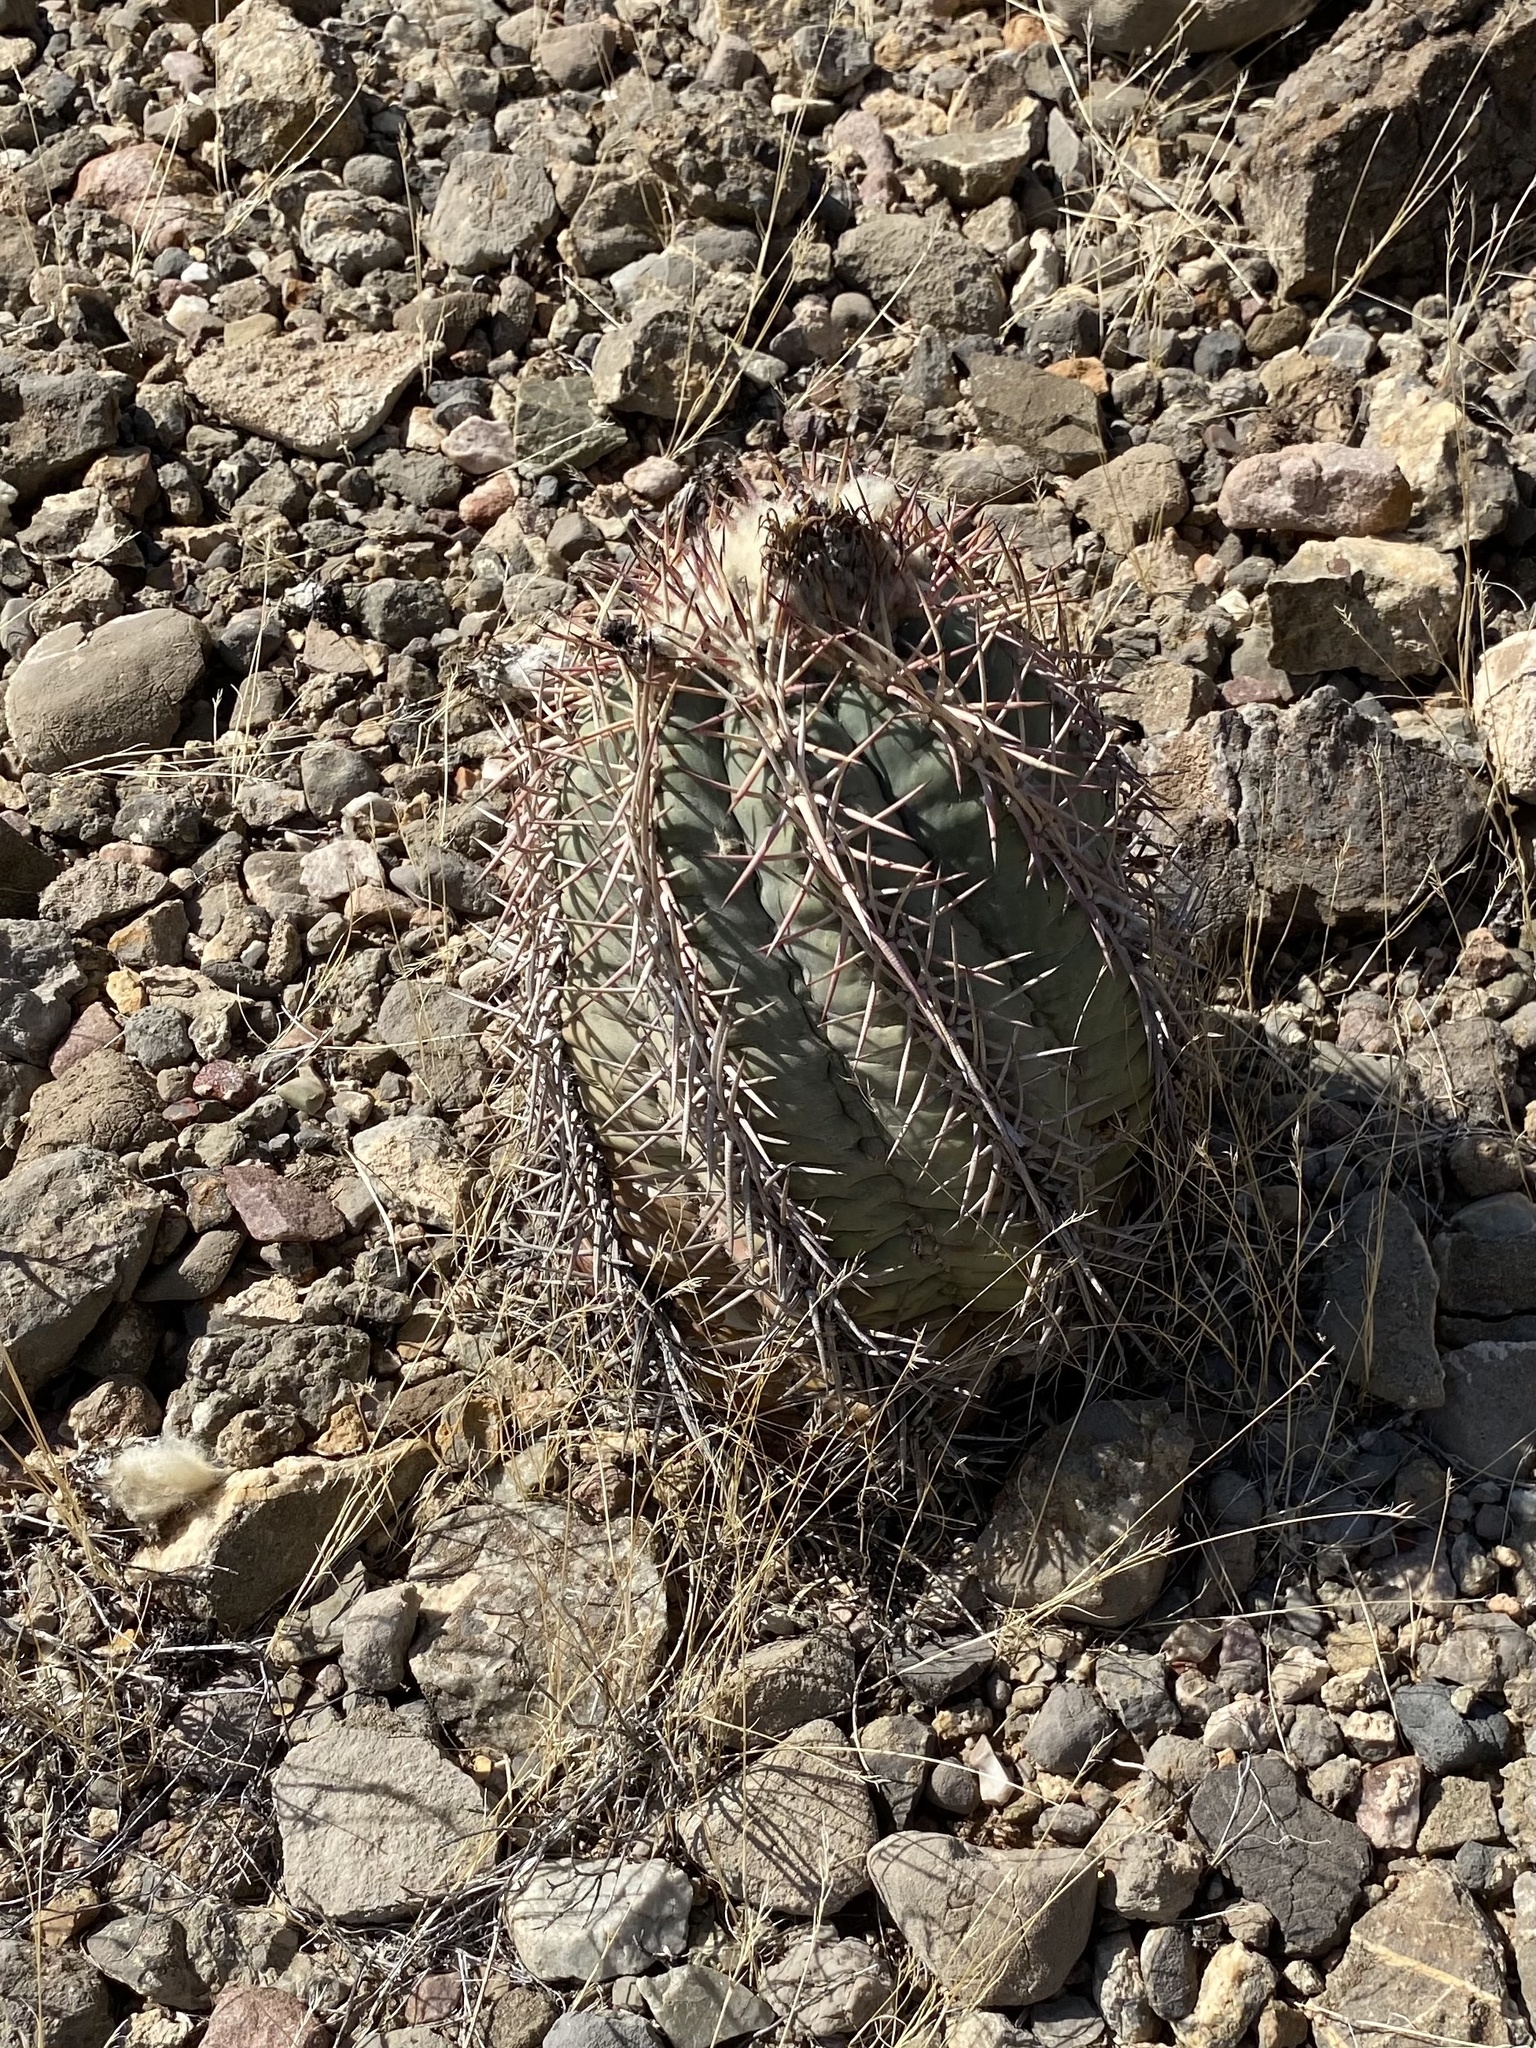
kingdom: Plantae
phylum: Tracheophyta
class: Magnoliopsida
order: Caryophyllales
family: Cactaceae
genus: Echinocactus
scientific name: Echinocactus horizonthalonius
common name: Devilshead
